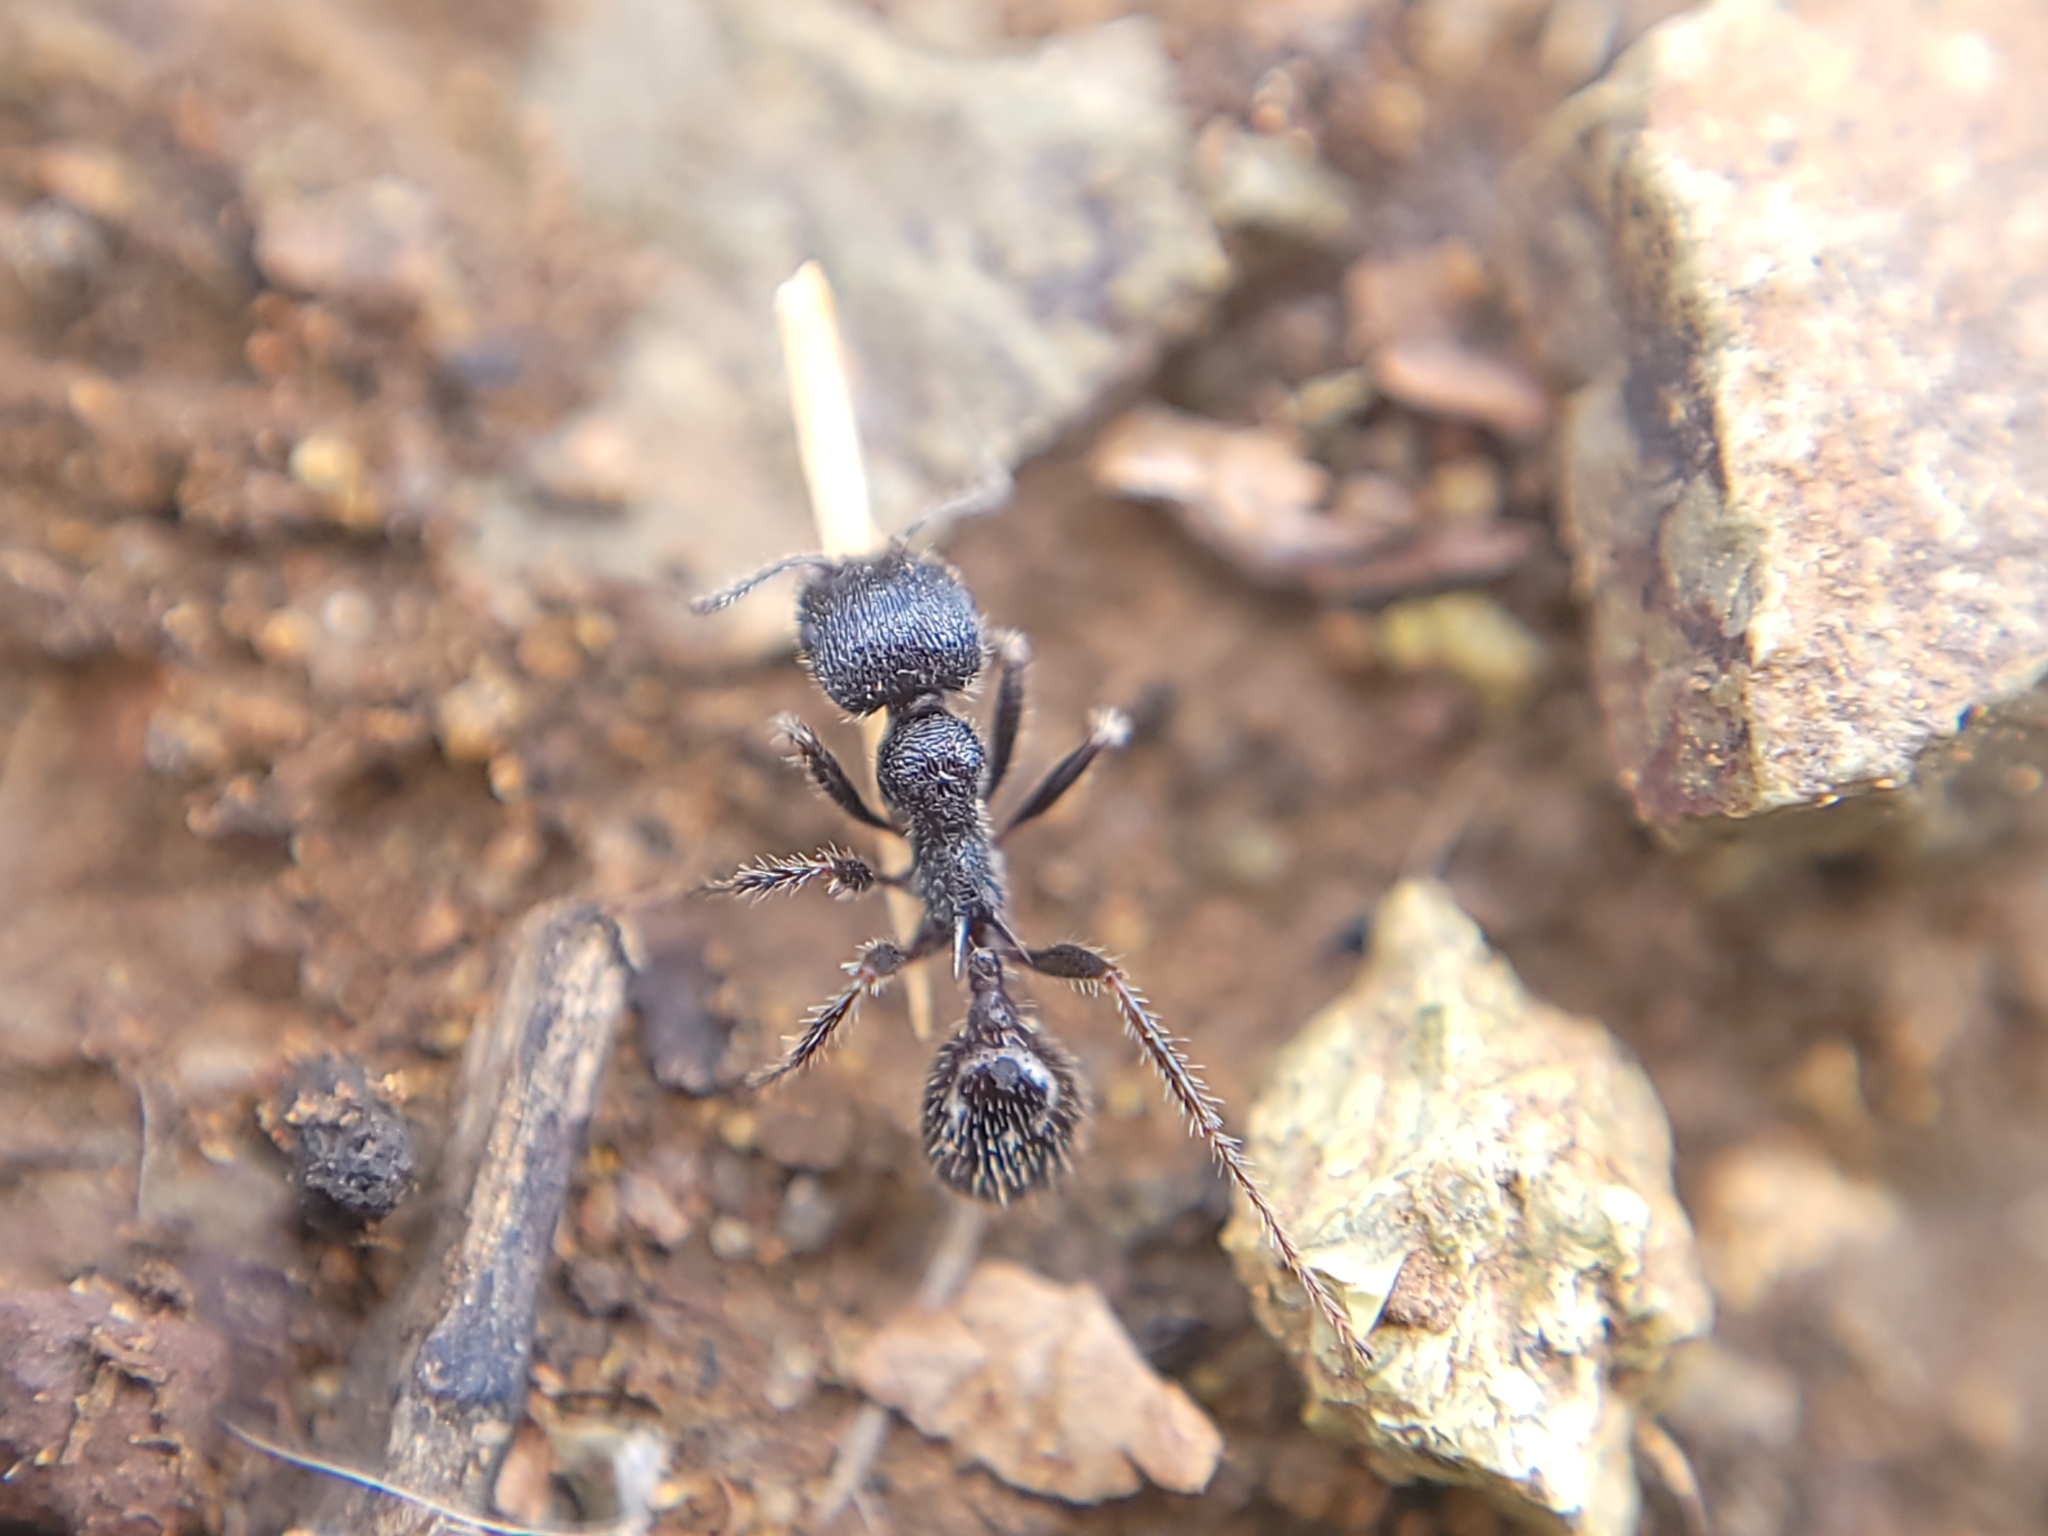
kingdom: Animalia
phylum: Arthropoda
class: Insecta
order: Hymenoptera
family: Formicidae
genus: Veromessor
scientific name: Veromessor andrei
